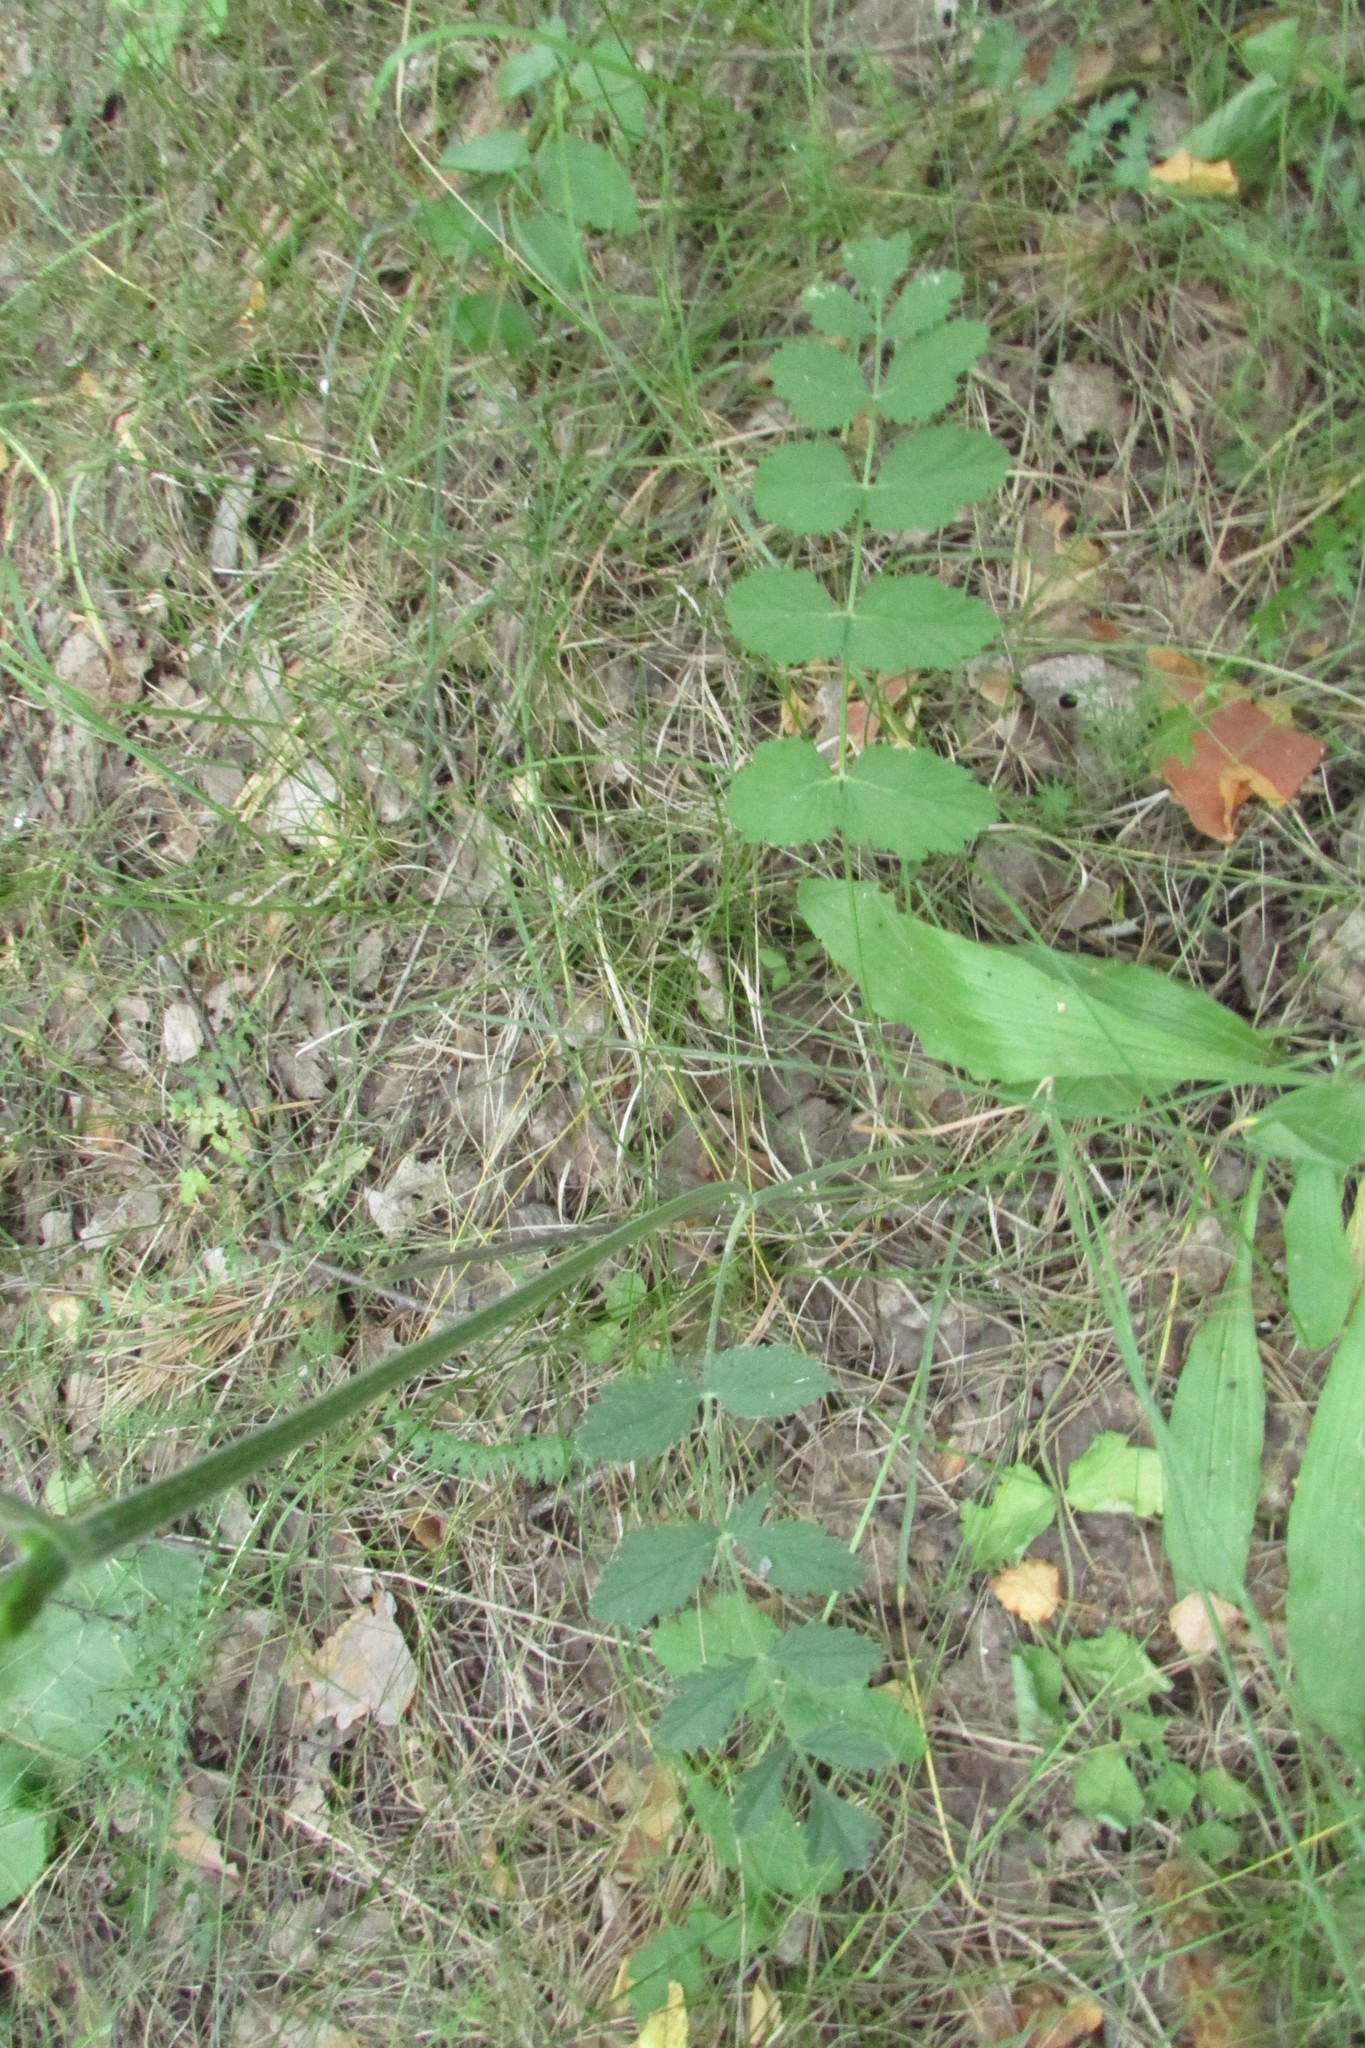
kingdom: Plantae
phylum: Tracheophyta
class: Magnoliopsida
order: Apiales
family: Apiaceae
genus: Pimpinella
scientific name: Pimpinella saxifraga
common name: Burnet-saxifrage
